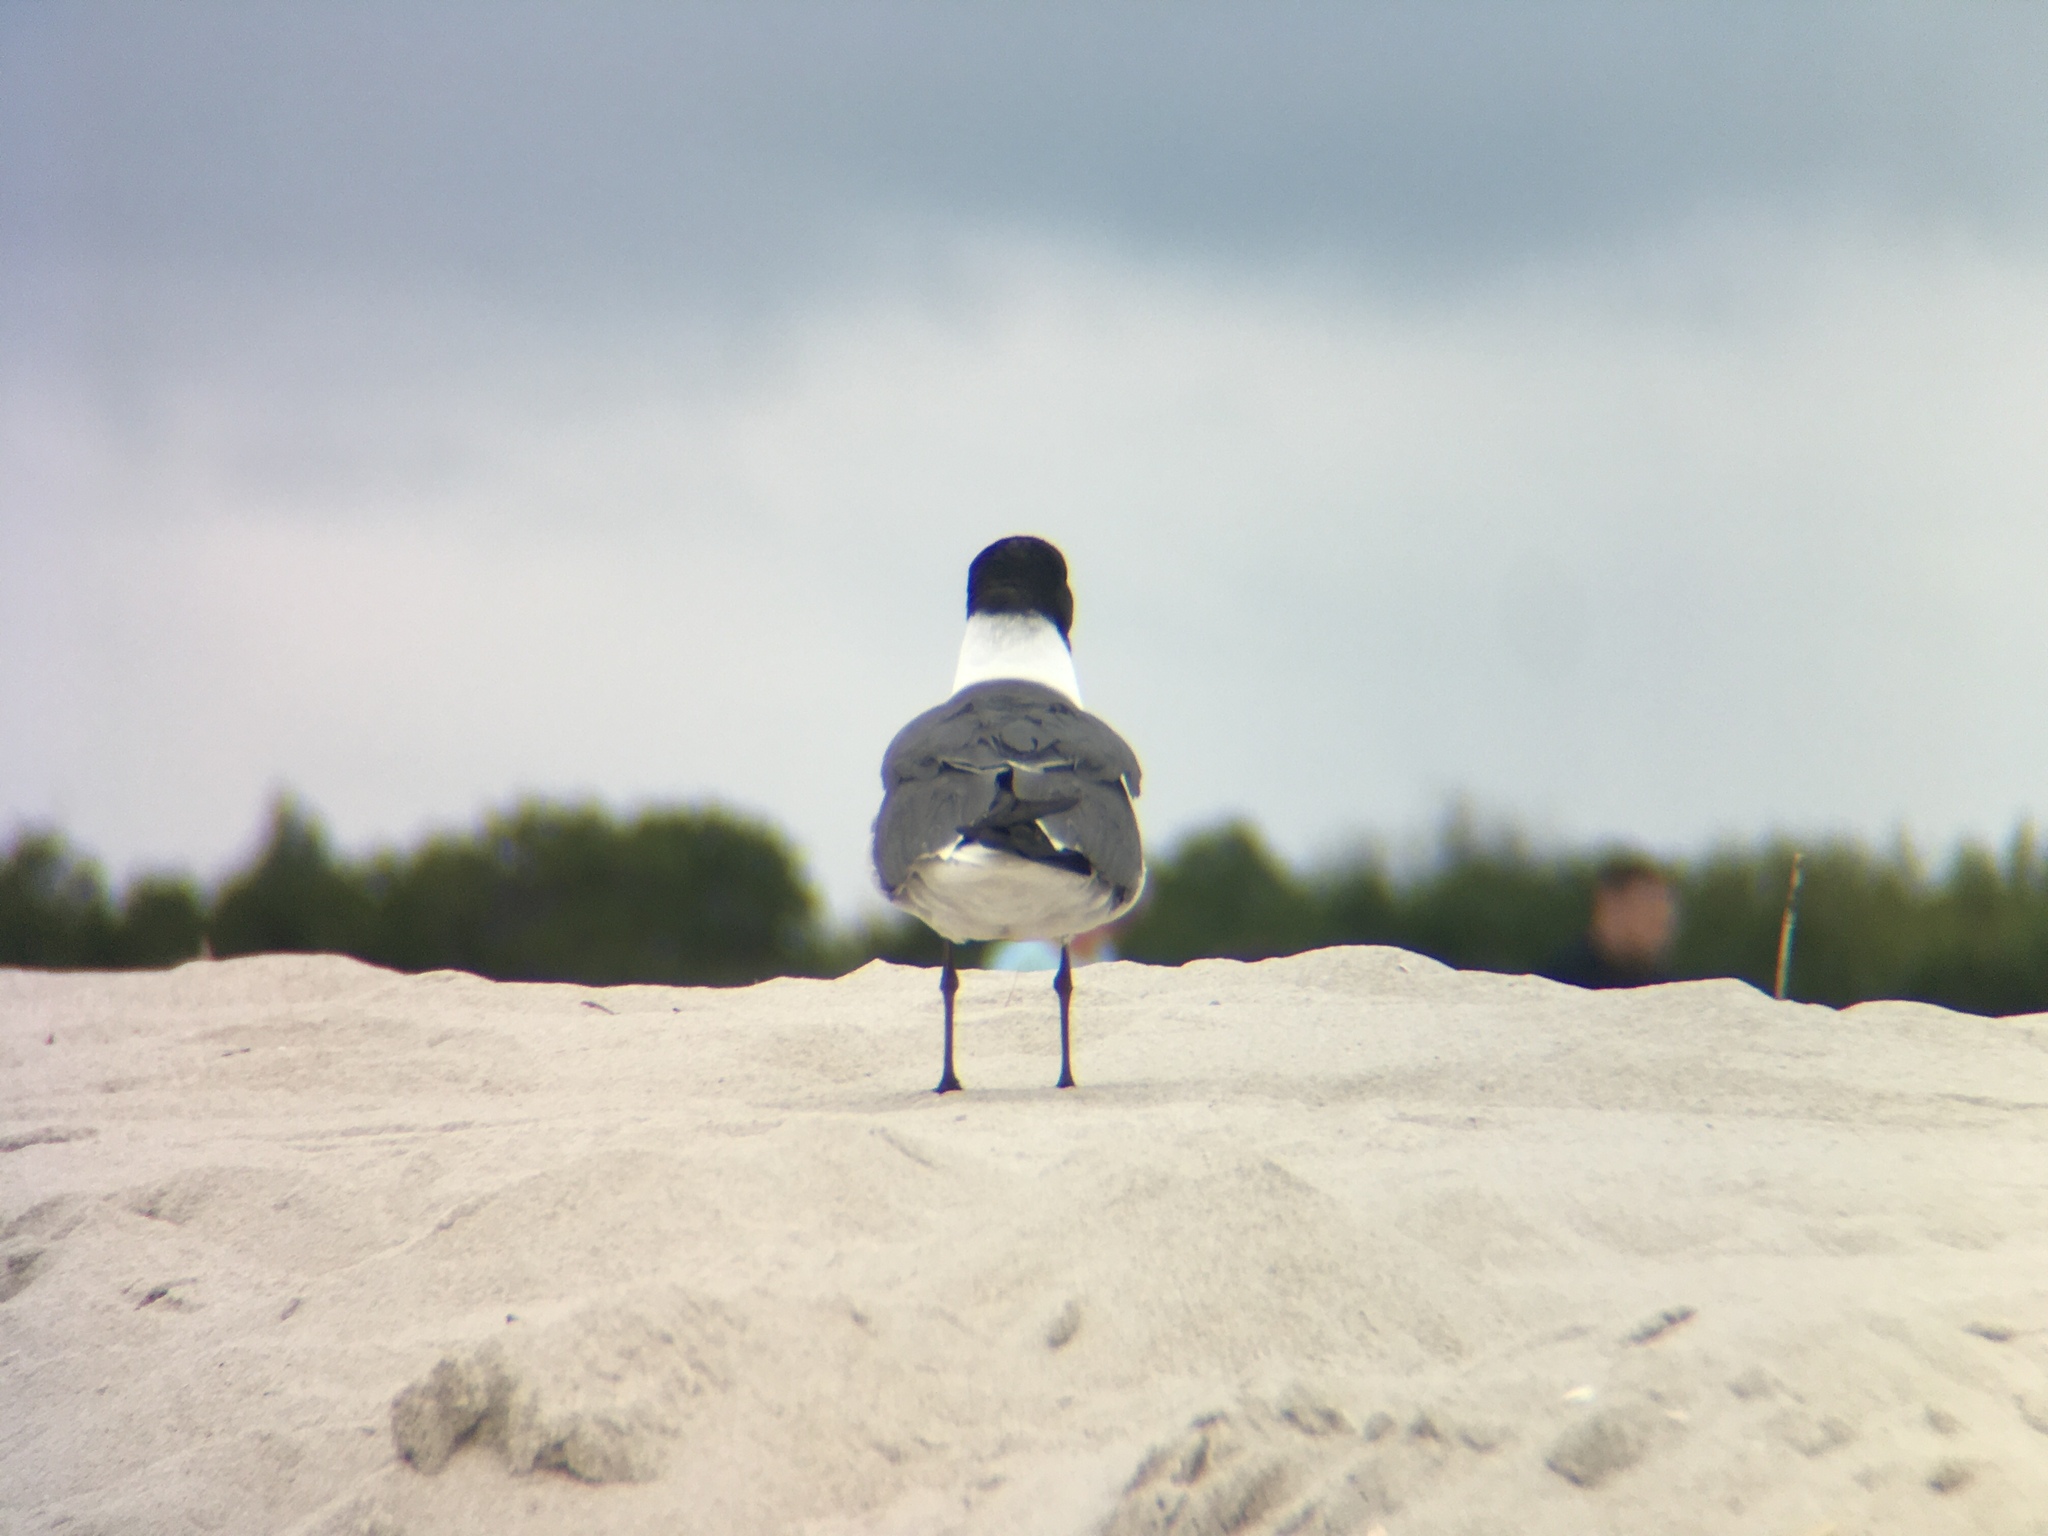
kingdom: Animalia
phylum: Chordata
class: Aves
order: Charadriiformes
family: Laridae
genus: Leucophaeus
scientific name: Leucophaeus atricilla
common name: Laughing gull
